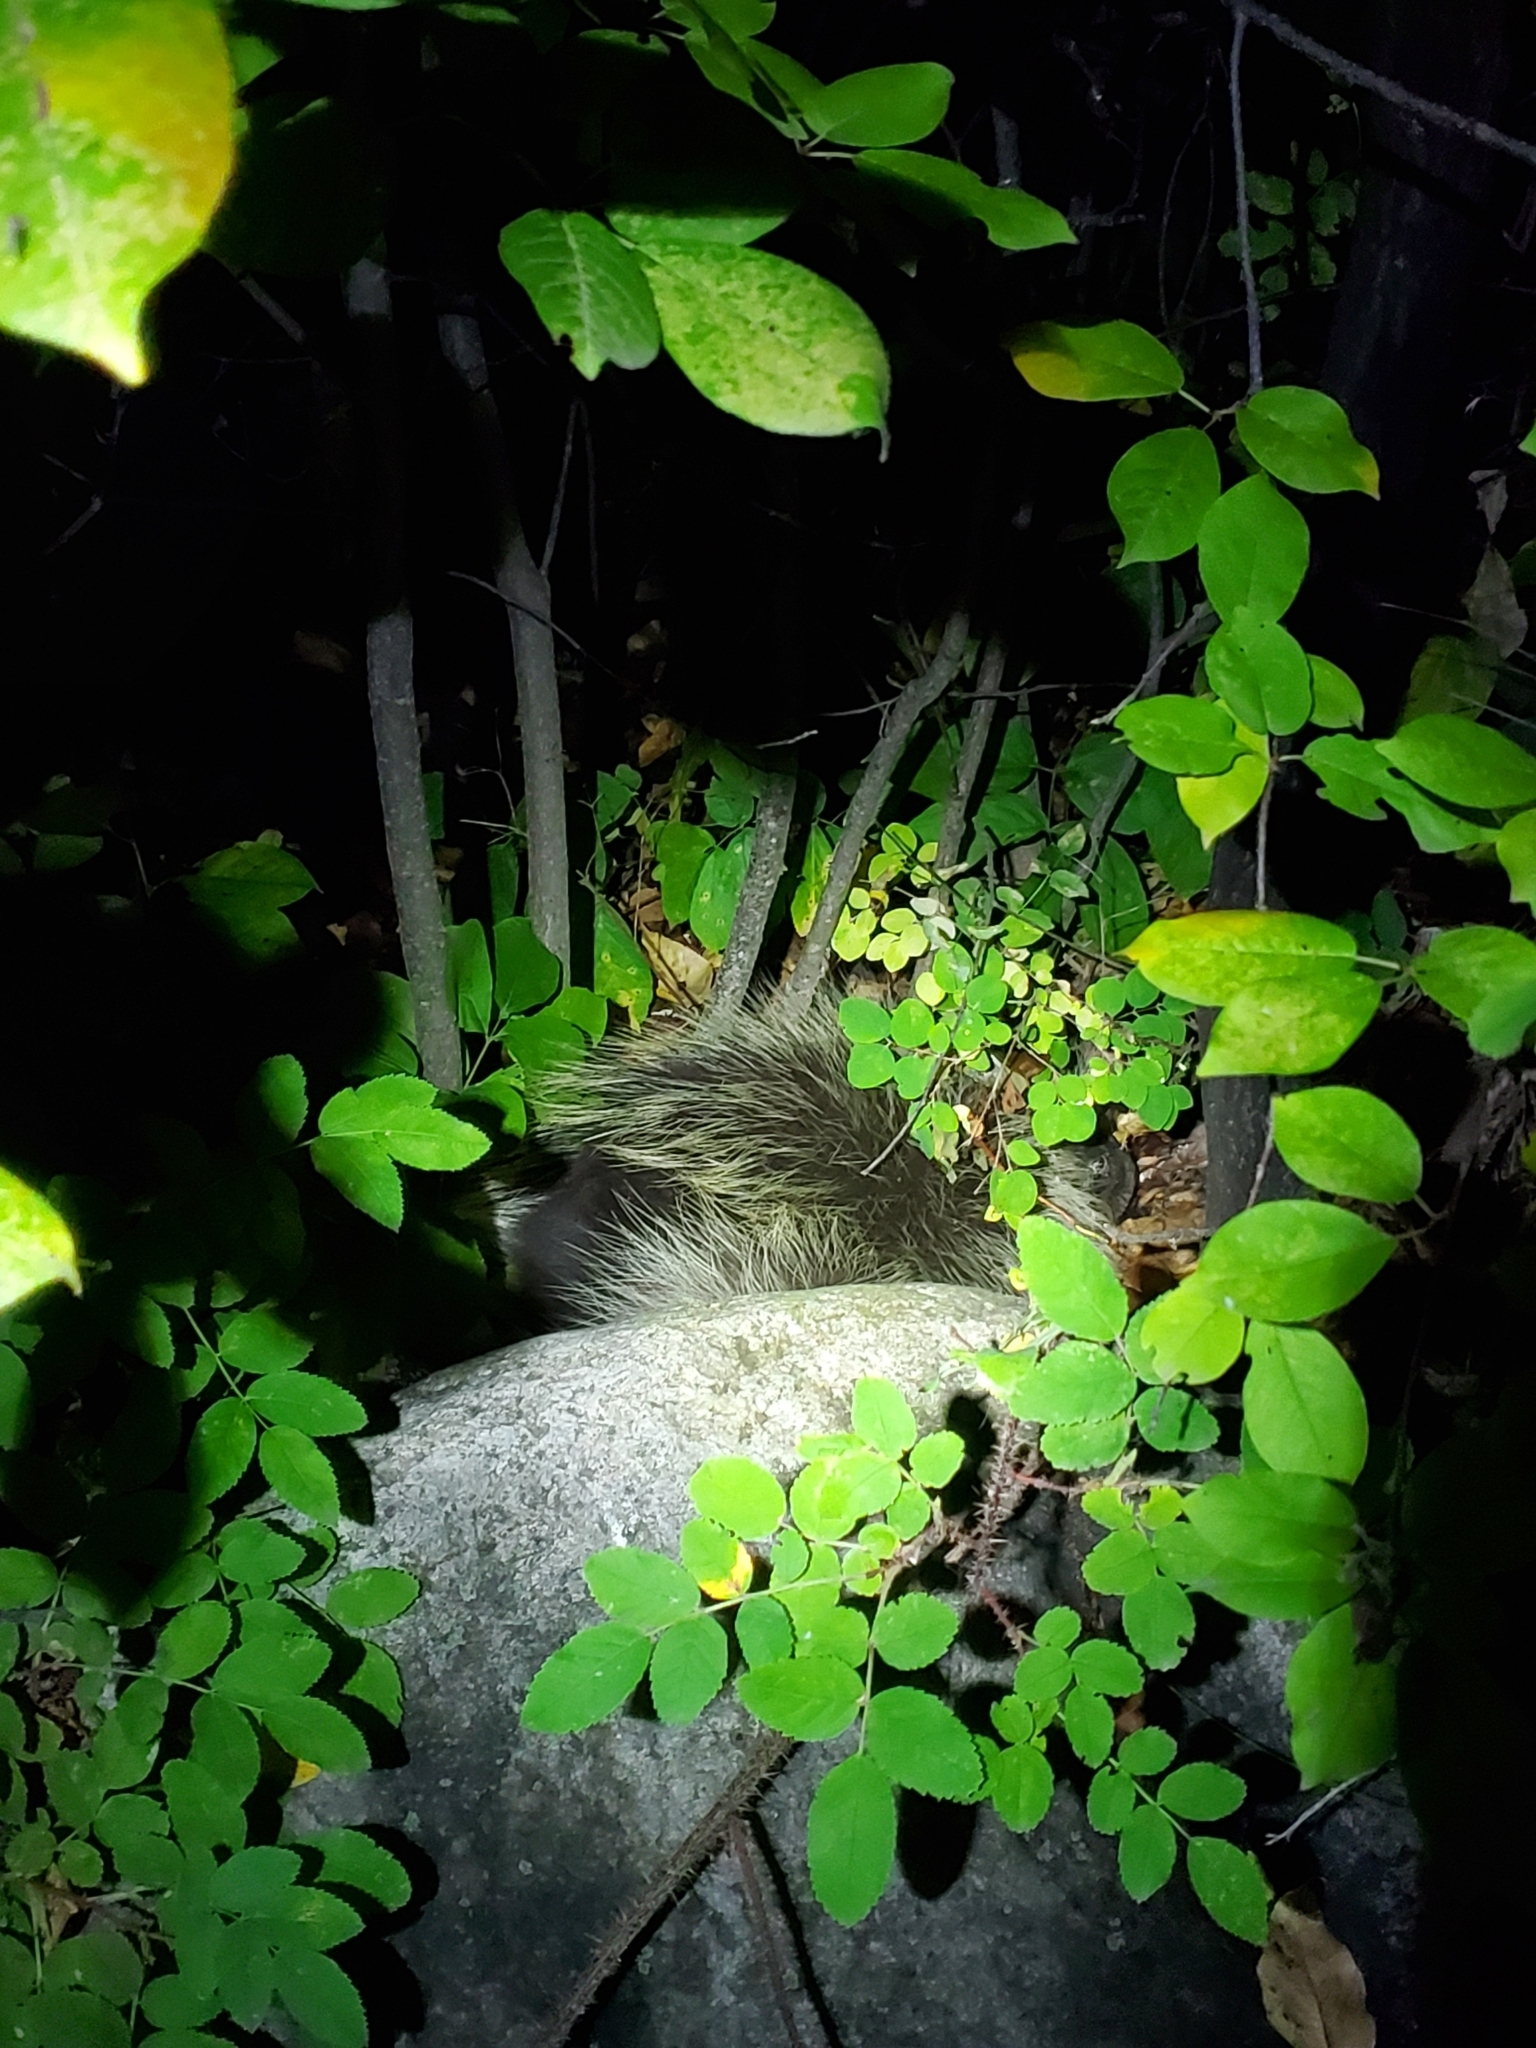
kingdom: Animalia
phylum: Chordata
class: Mammalia
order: Rodentia
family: Erethizontidae
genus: Erethizon
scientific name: Erethizon dorsatus
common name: North american porcupine
